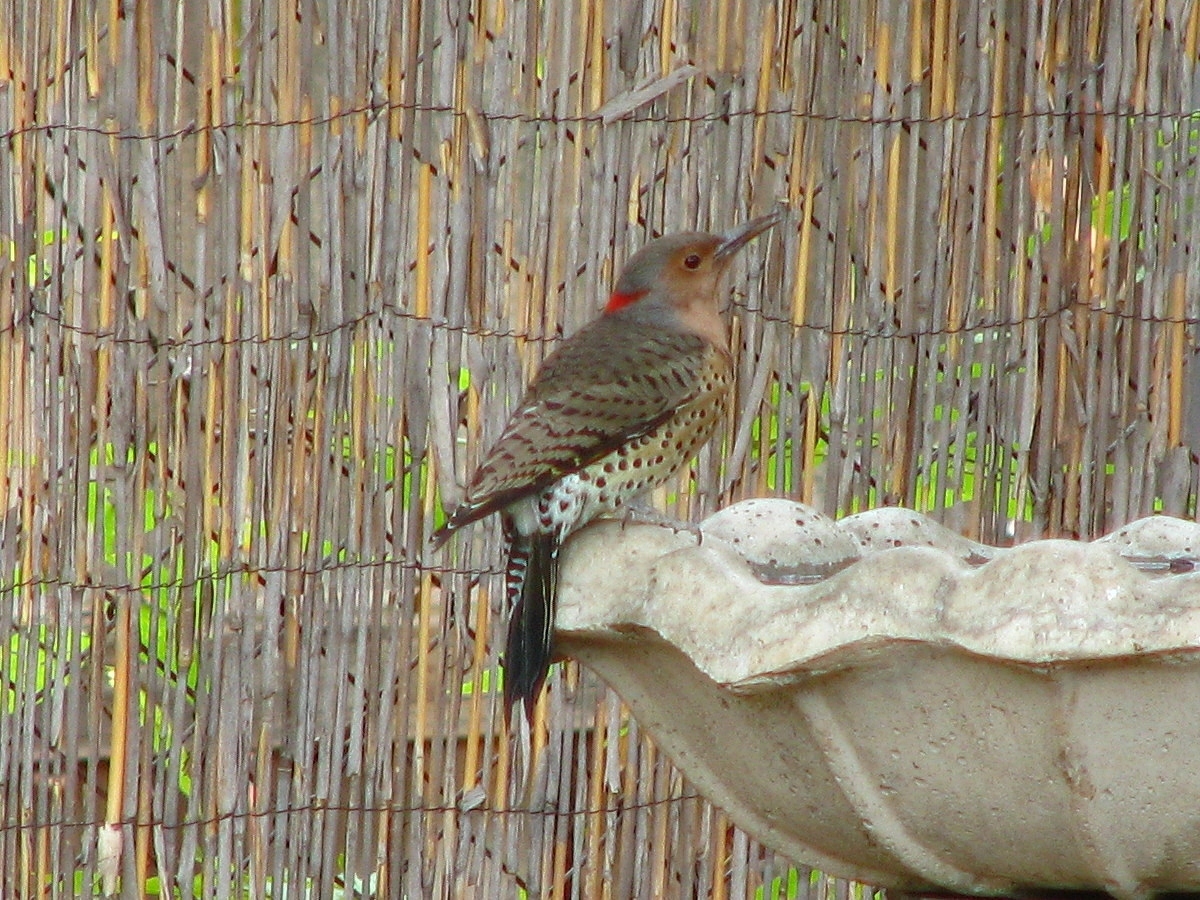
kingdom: Animalia
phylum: Chordata
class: Aves
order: Piciformes
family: Picidae
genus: Colaptes
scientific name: Colaptes auratus
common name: Northern flicker
